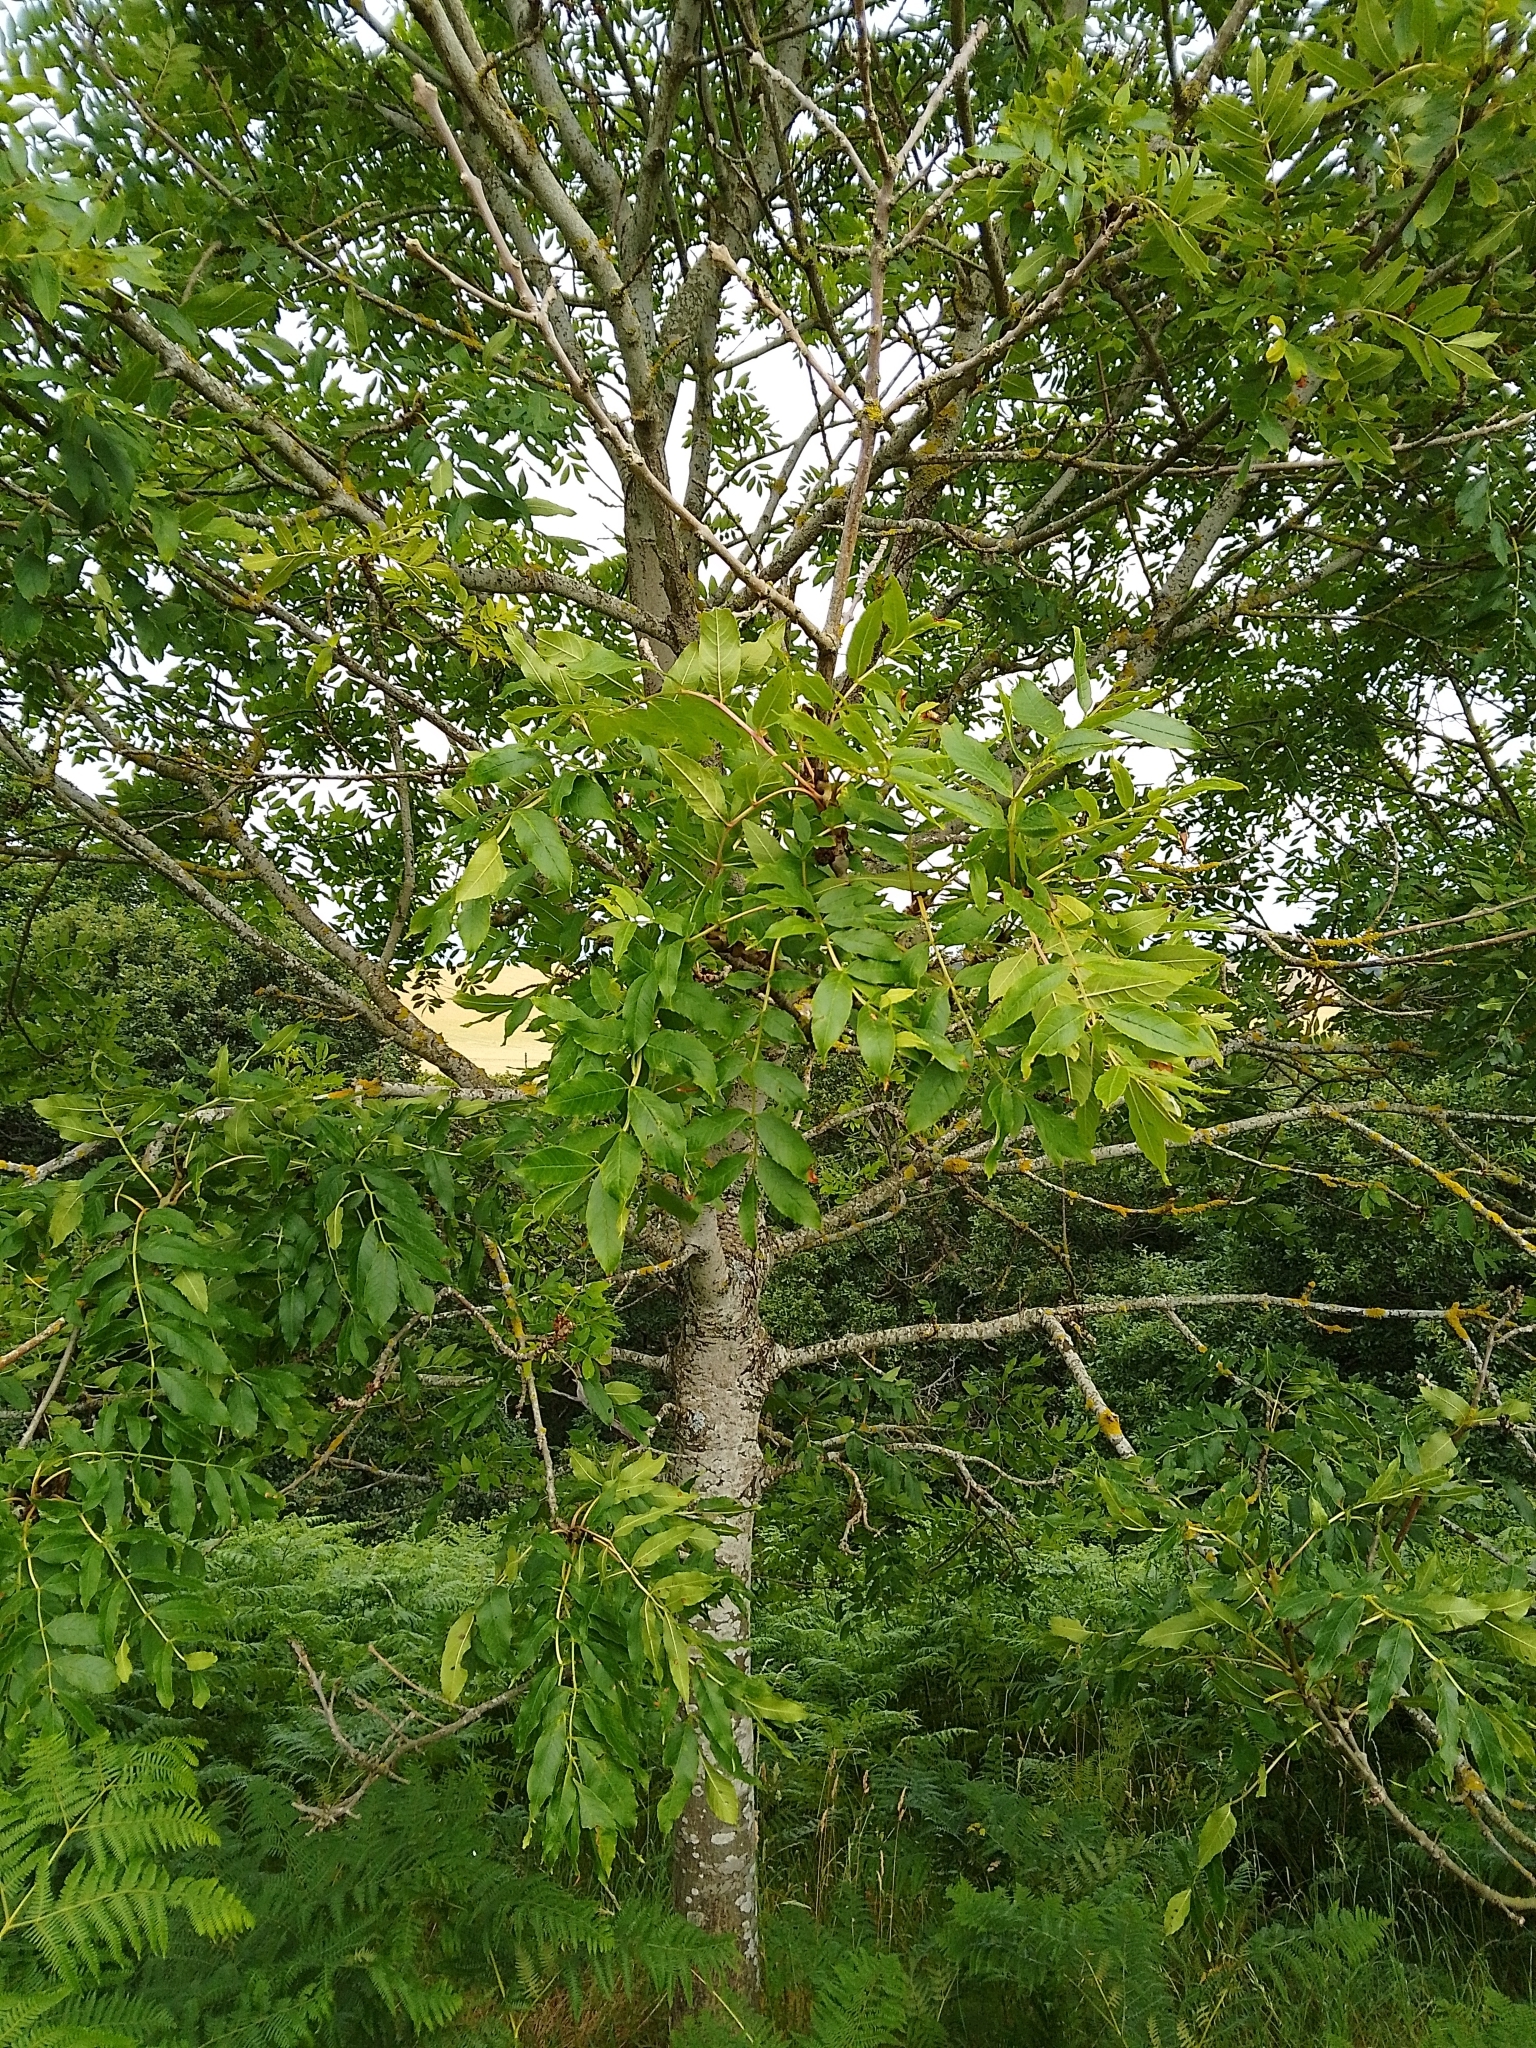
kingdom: Plantae
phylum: Tracheophyta
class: Magnoliopsida
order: Lamiales
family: Oleaceae
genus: Fraxinus
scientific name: Fraxinus excelsior
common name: European ash
